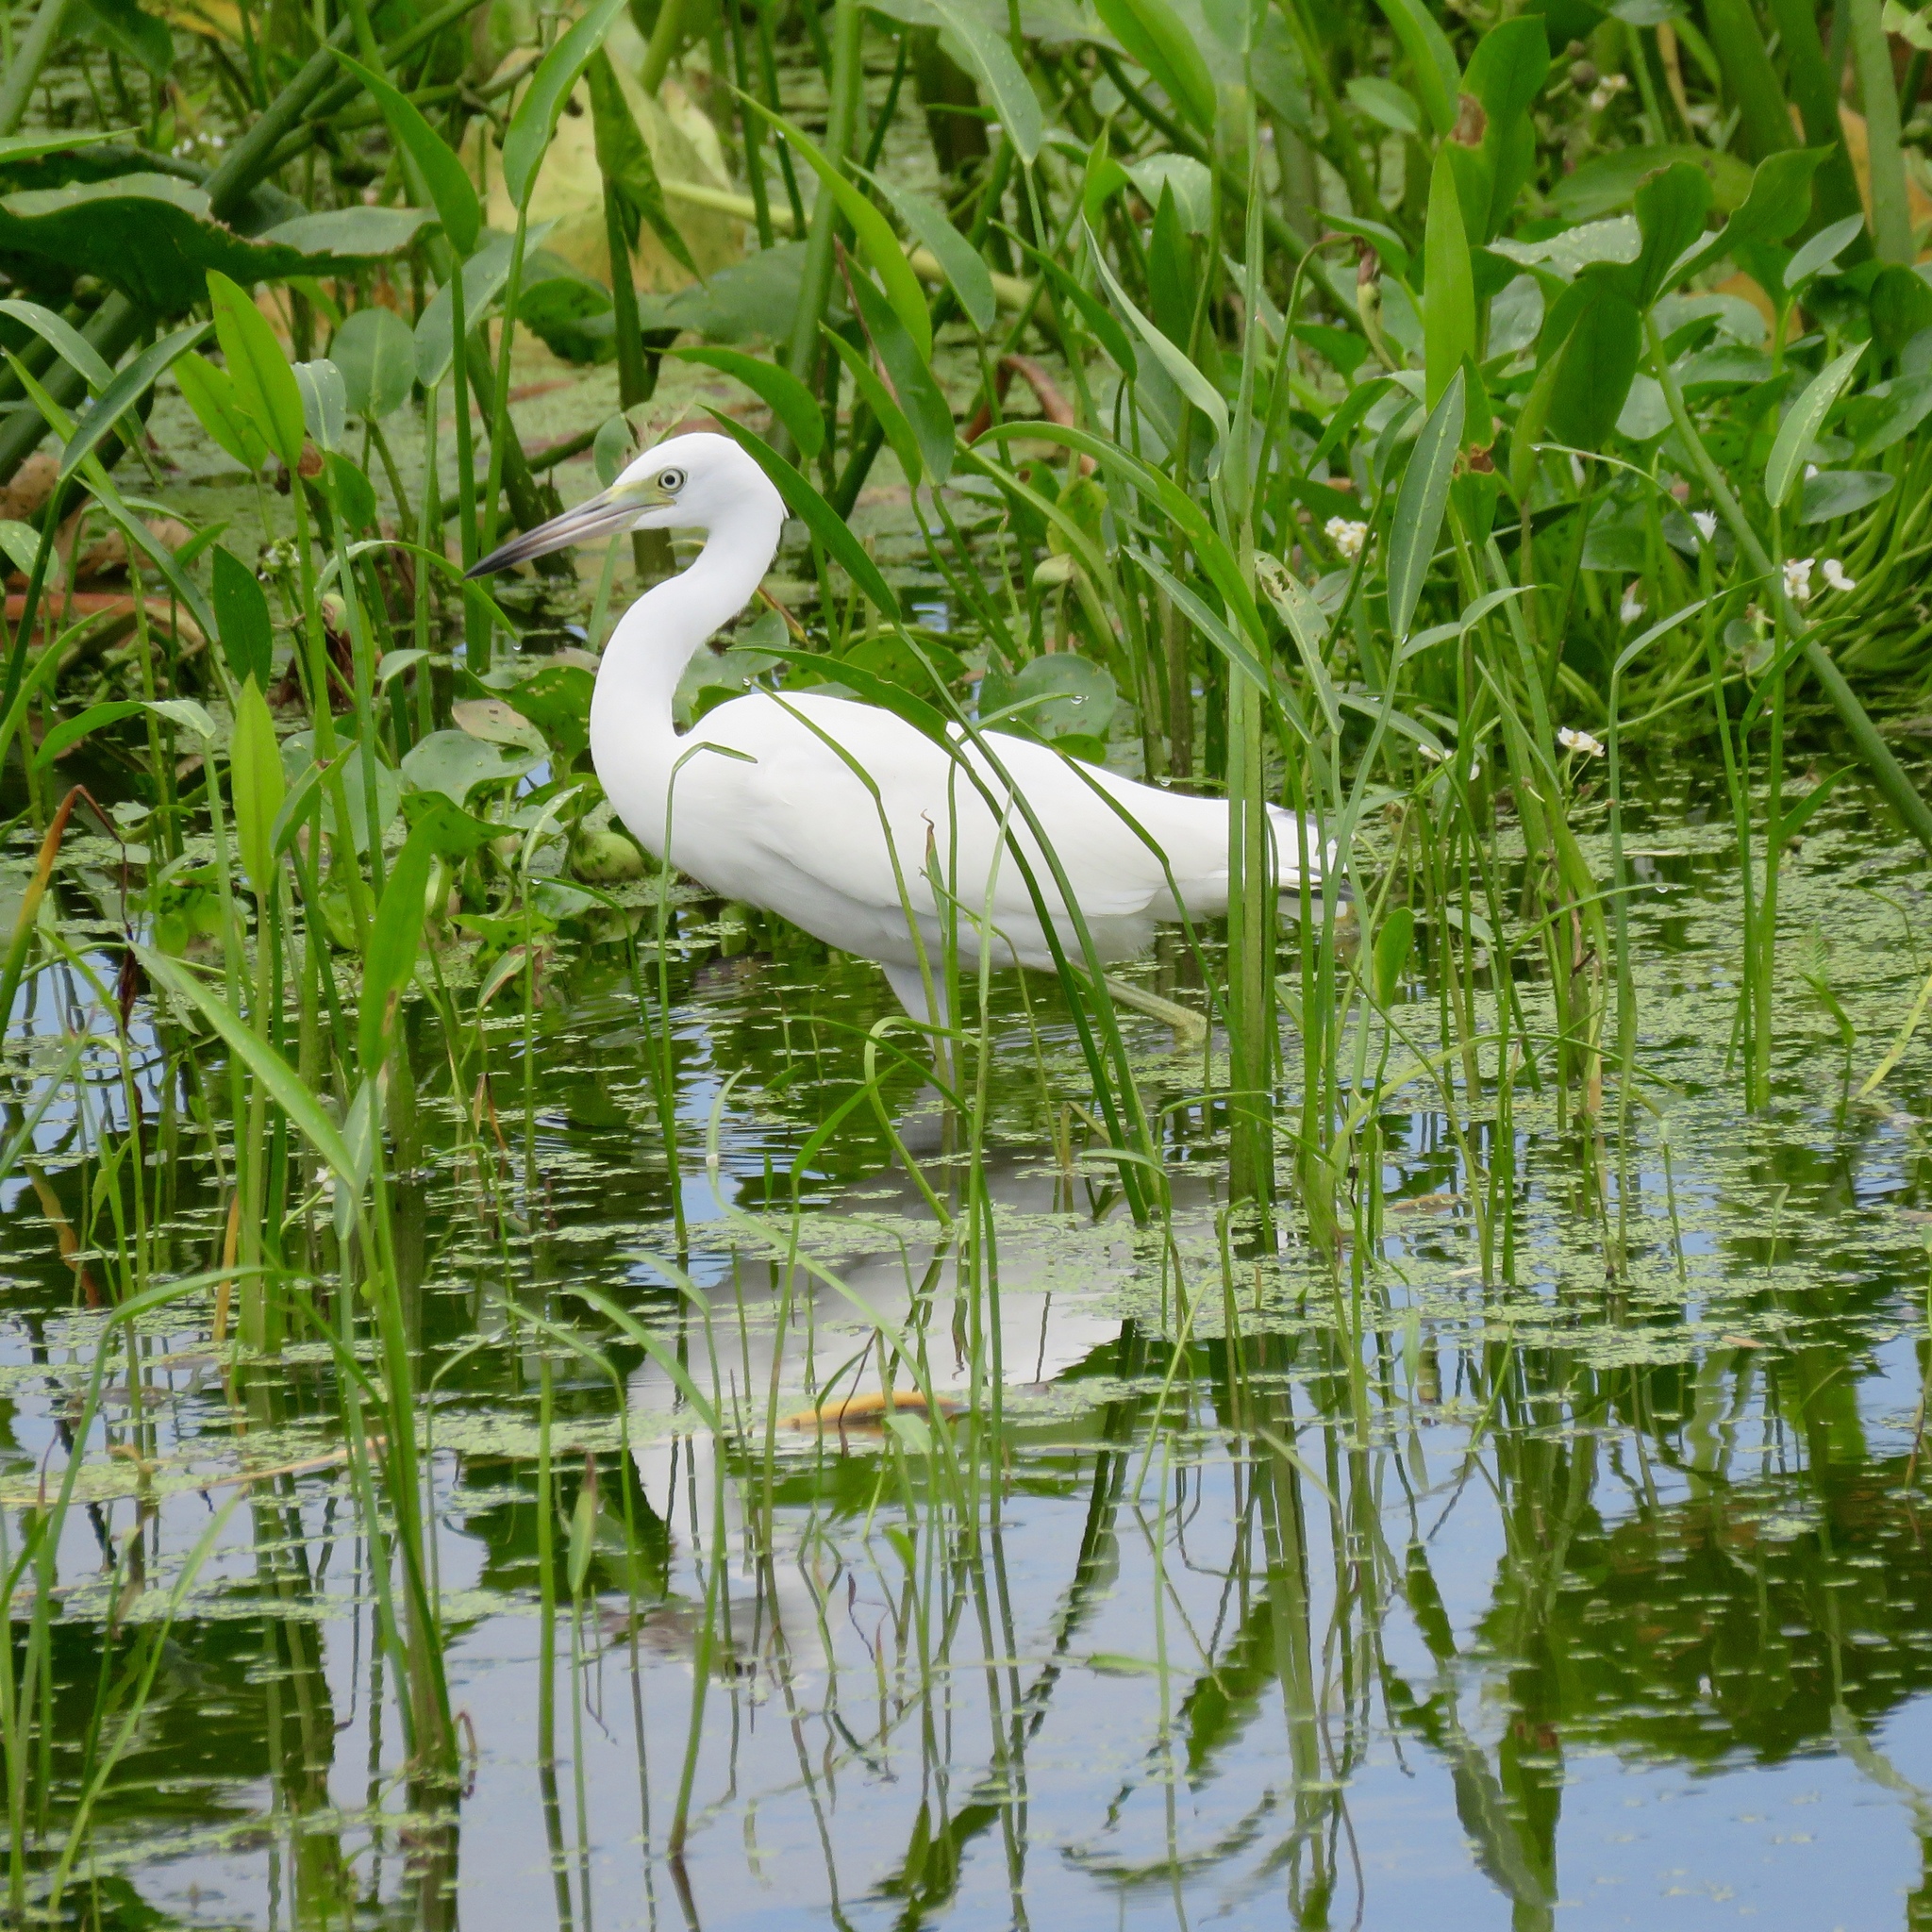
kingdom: Animalia
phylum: Chordata
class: Aves
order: Pelecaniformes
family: Ardeidae
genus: Egretta
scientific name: Egretta caerulea
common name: Little blue heron
